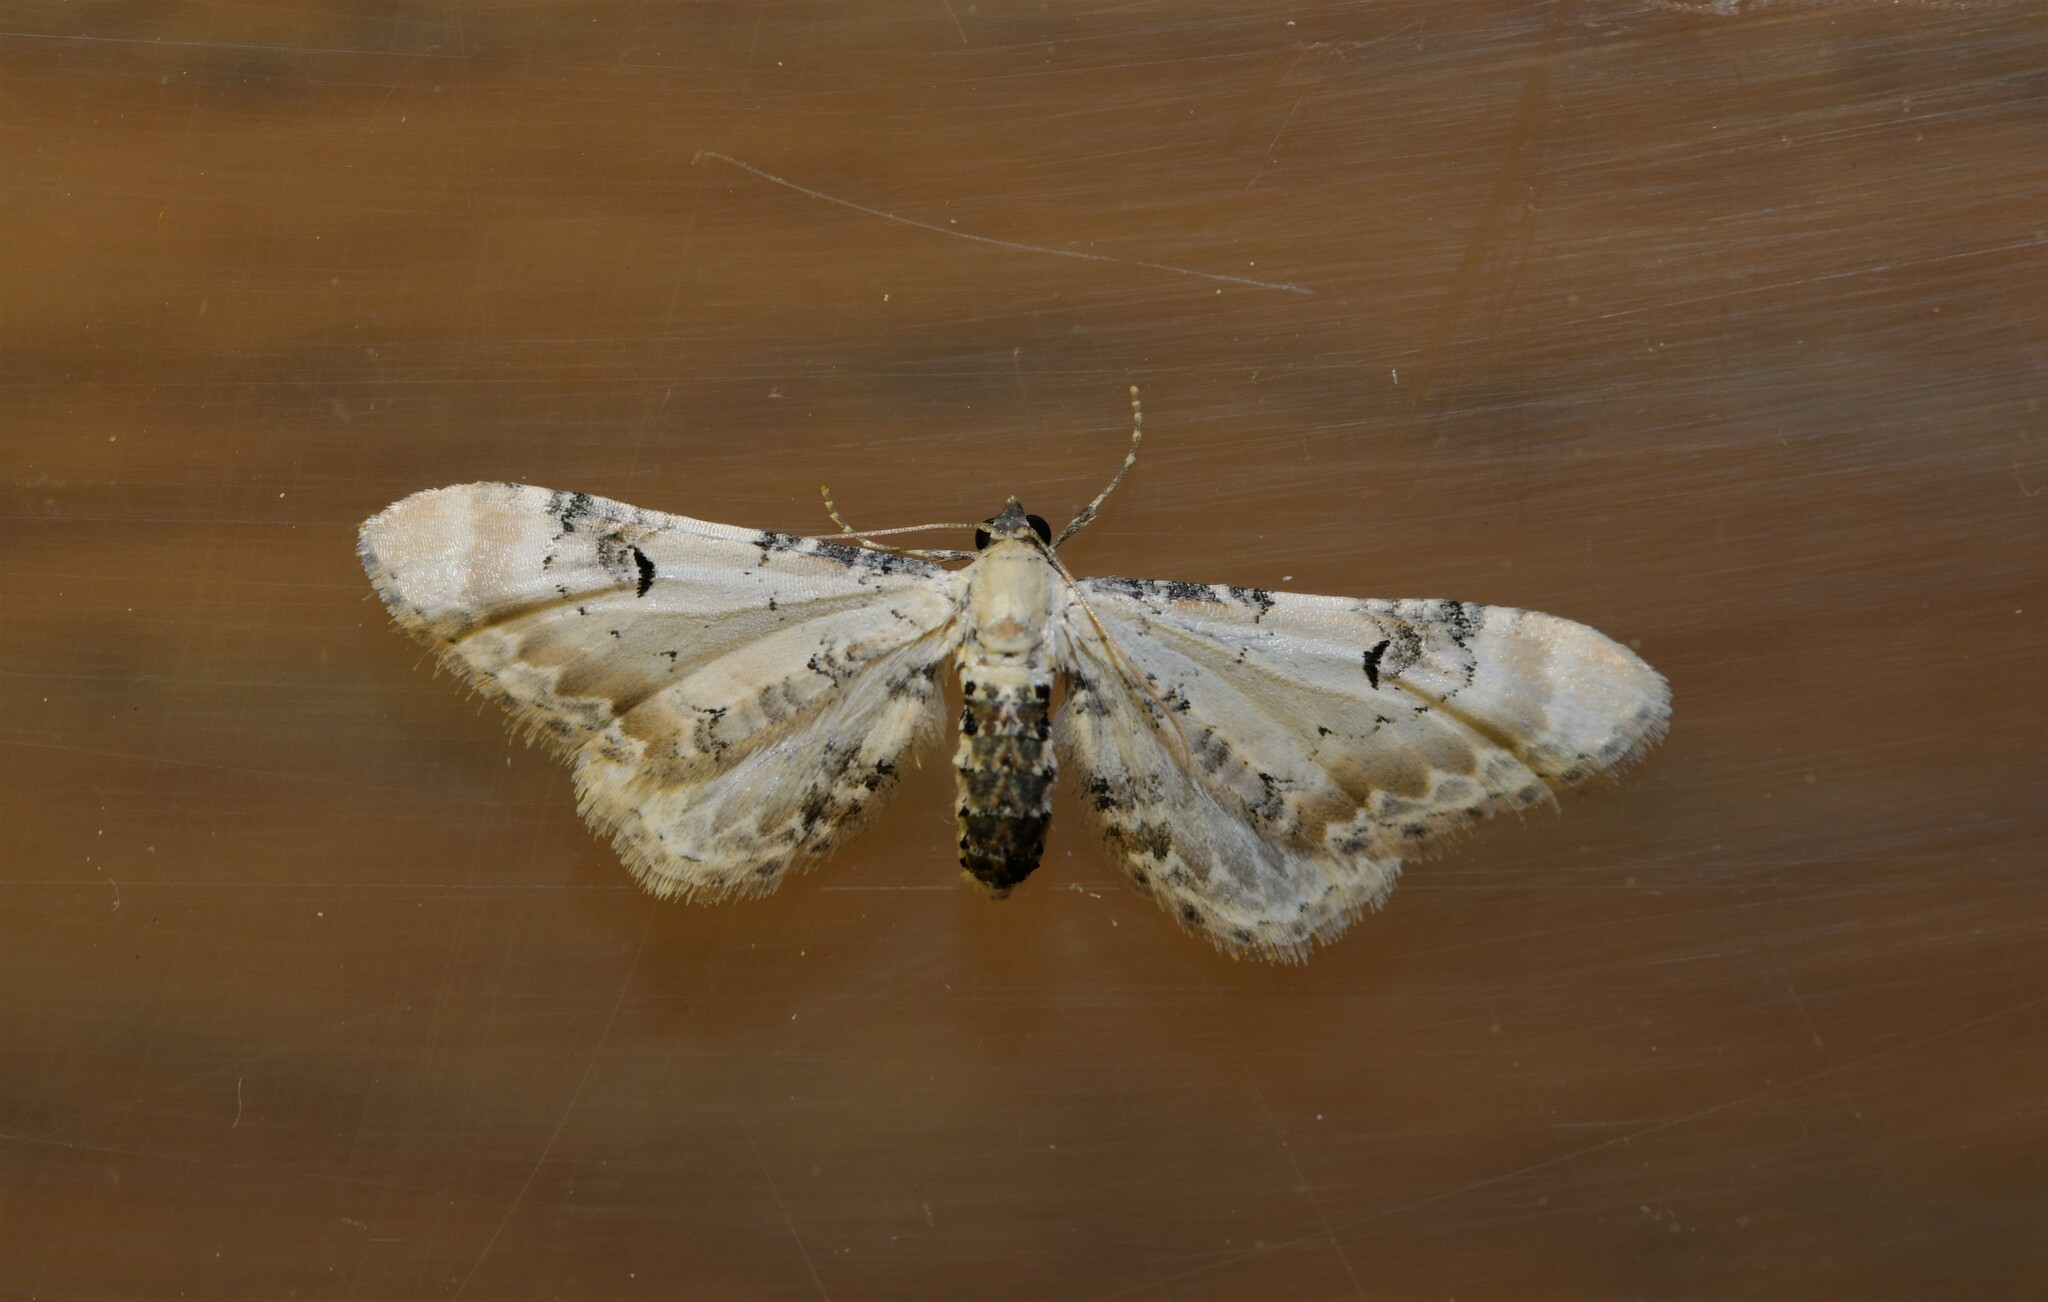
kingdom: Animalia
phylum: Arthropoda
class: Insecta
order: Lepidoptera
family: Geometridae
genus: Eupithecia
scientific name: Eupithecia centaureata
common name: Lime-speck pug
